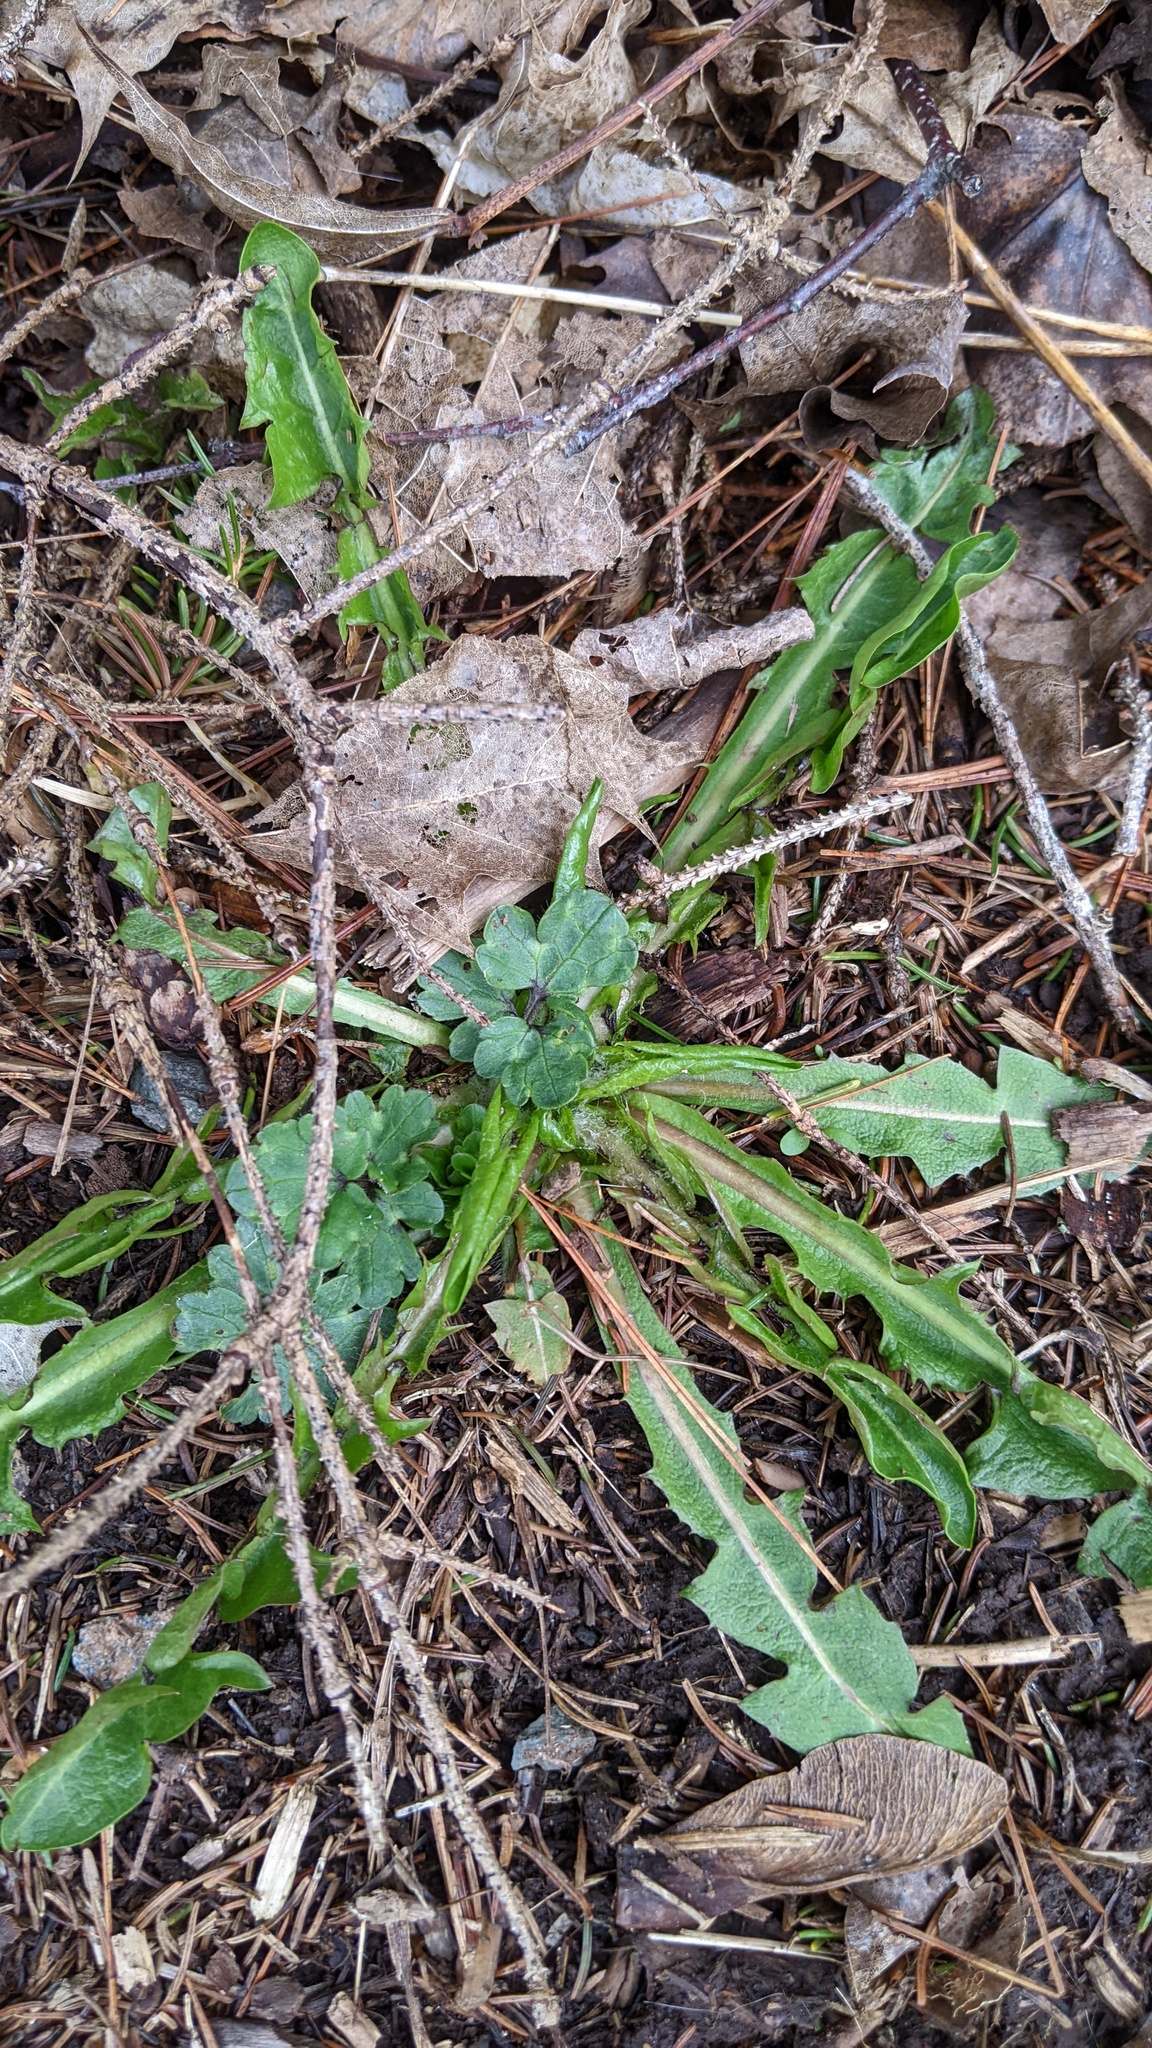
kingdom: Plantae
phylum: Tracheophyta
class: Magnoliopsida
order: Asterales
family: Asteraceae
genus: Taraxacum
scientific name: Taraxacum officinale
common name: Common dandelion
